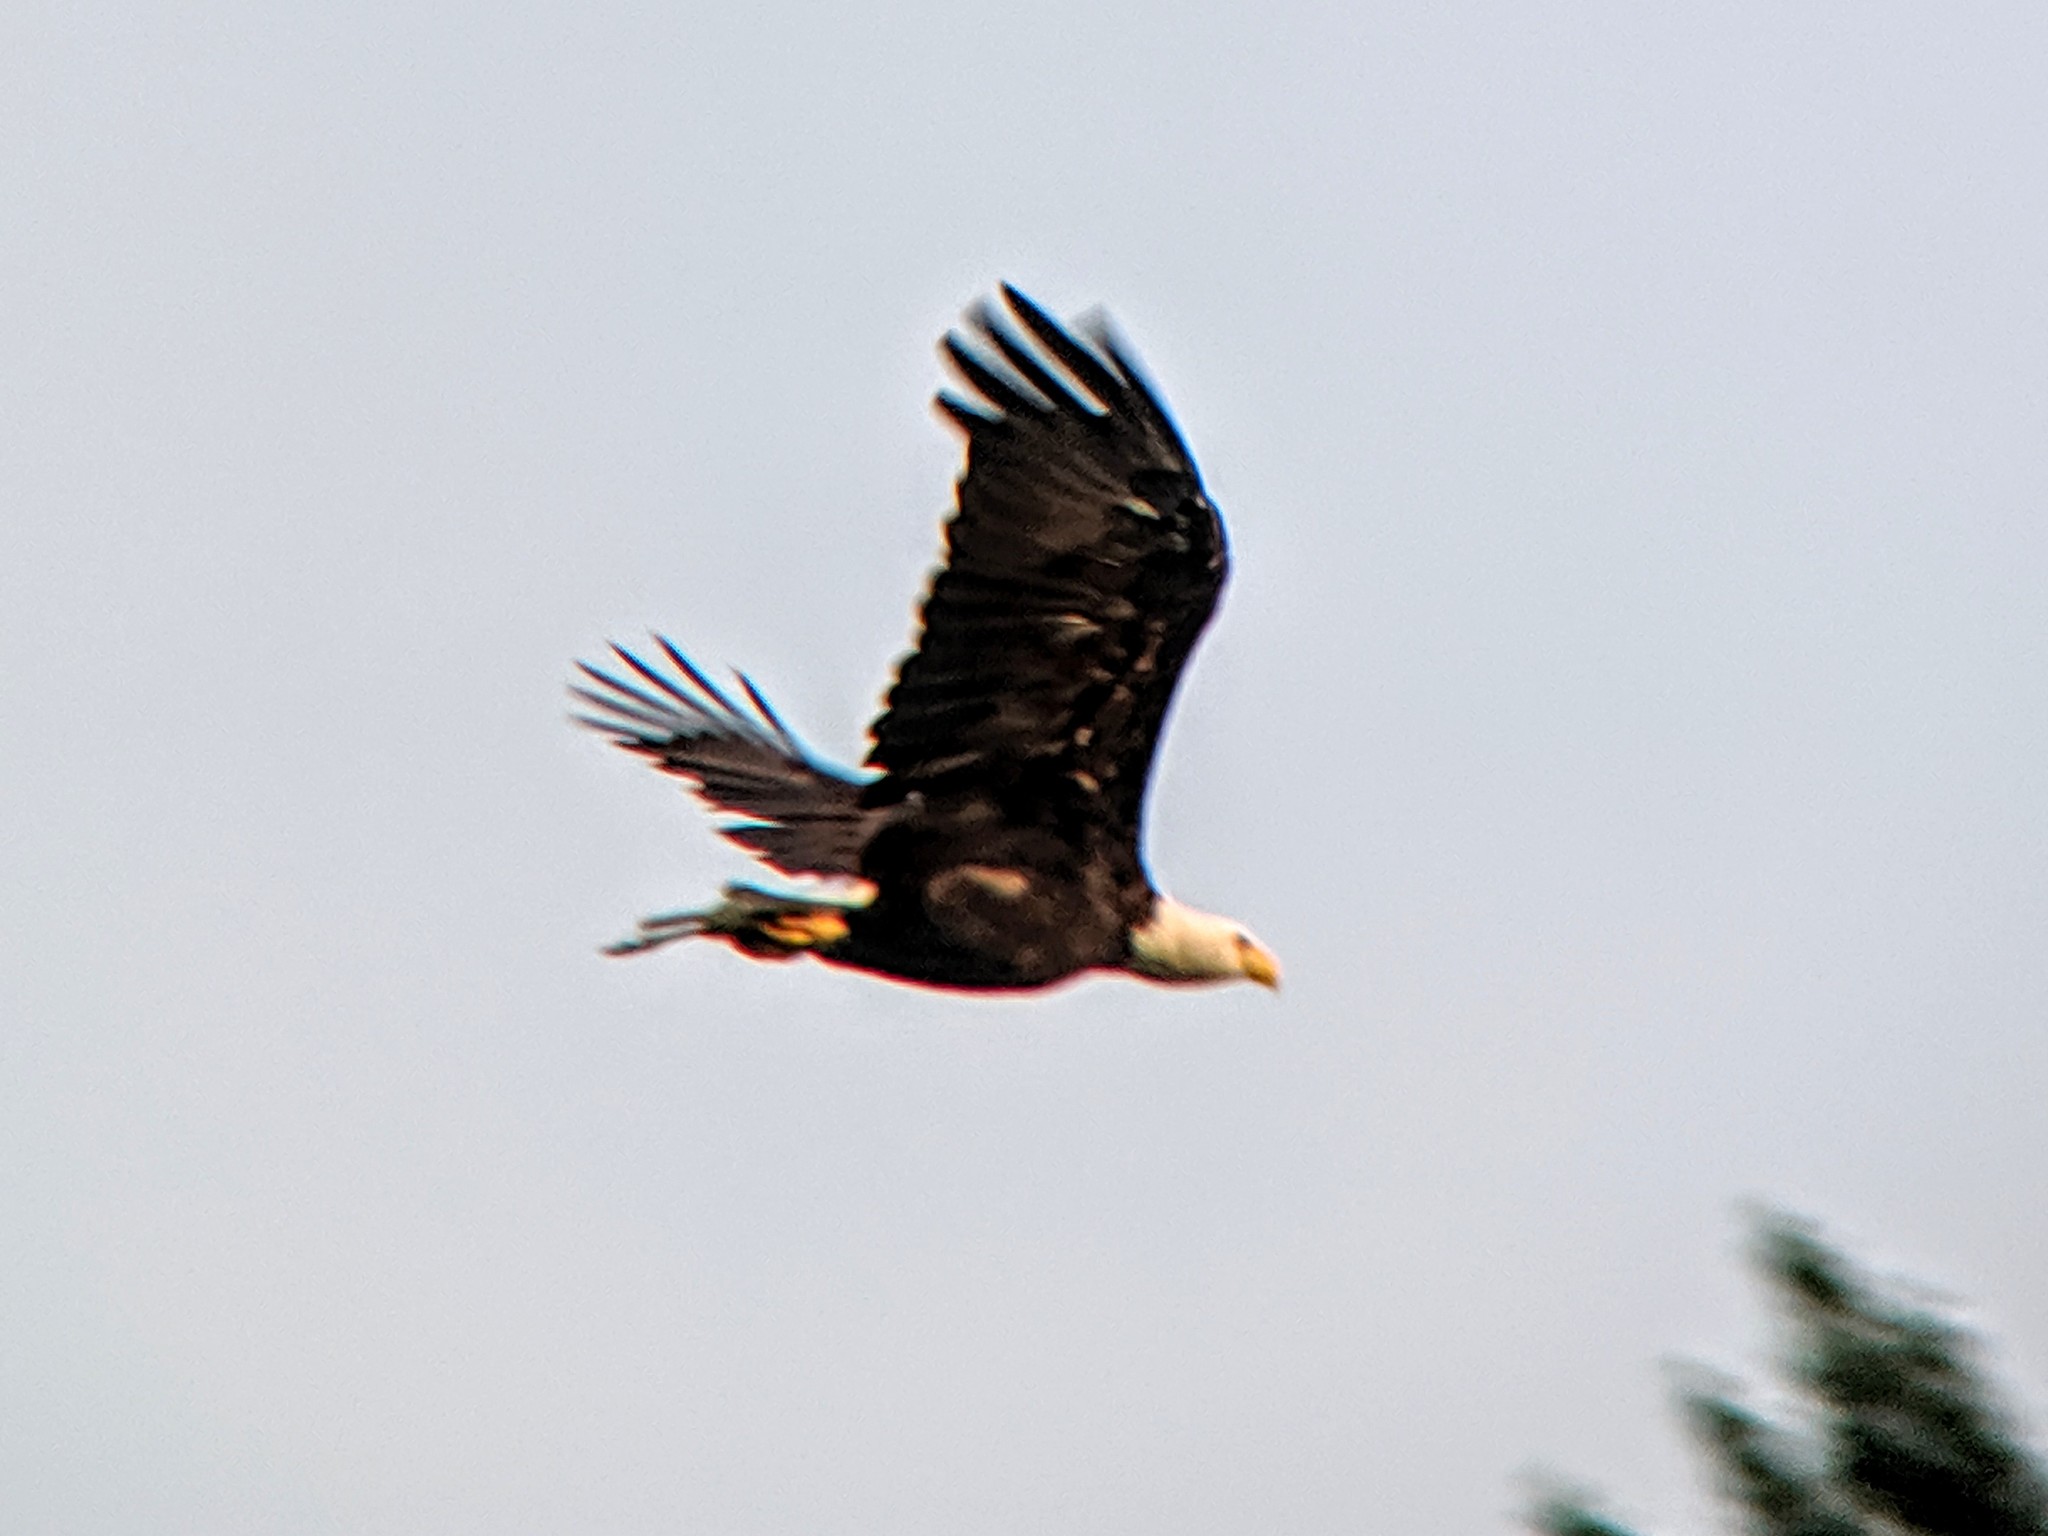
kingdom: Animalia
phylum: Chordata
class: Aves
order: Accipitriformes
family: Accipitridae
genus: Haliaeetus
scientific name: Haliaeetus leucocephalus
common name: Bald eagle
